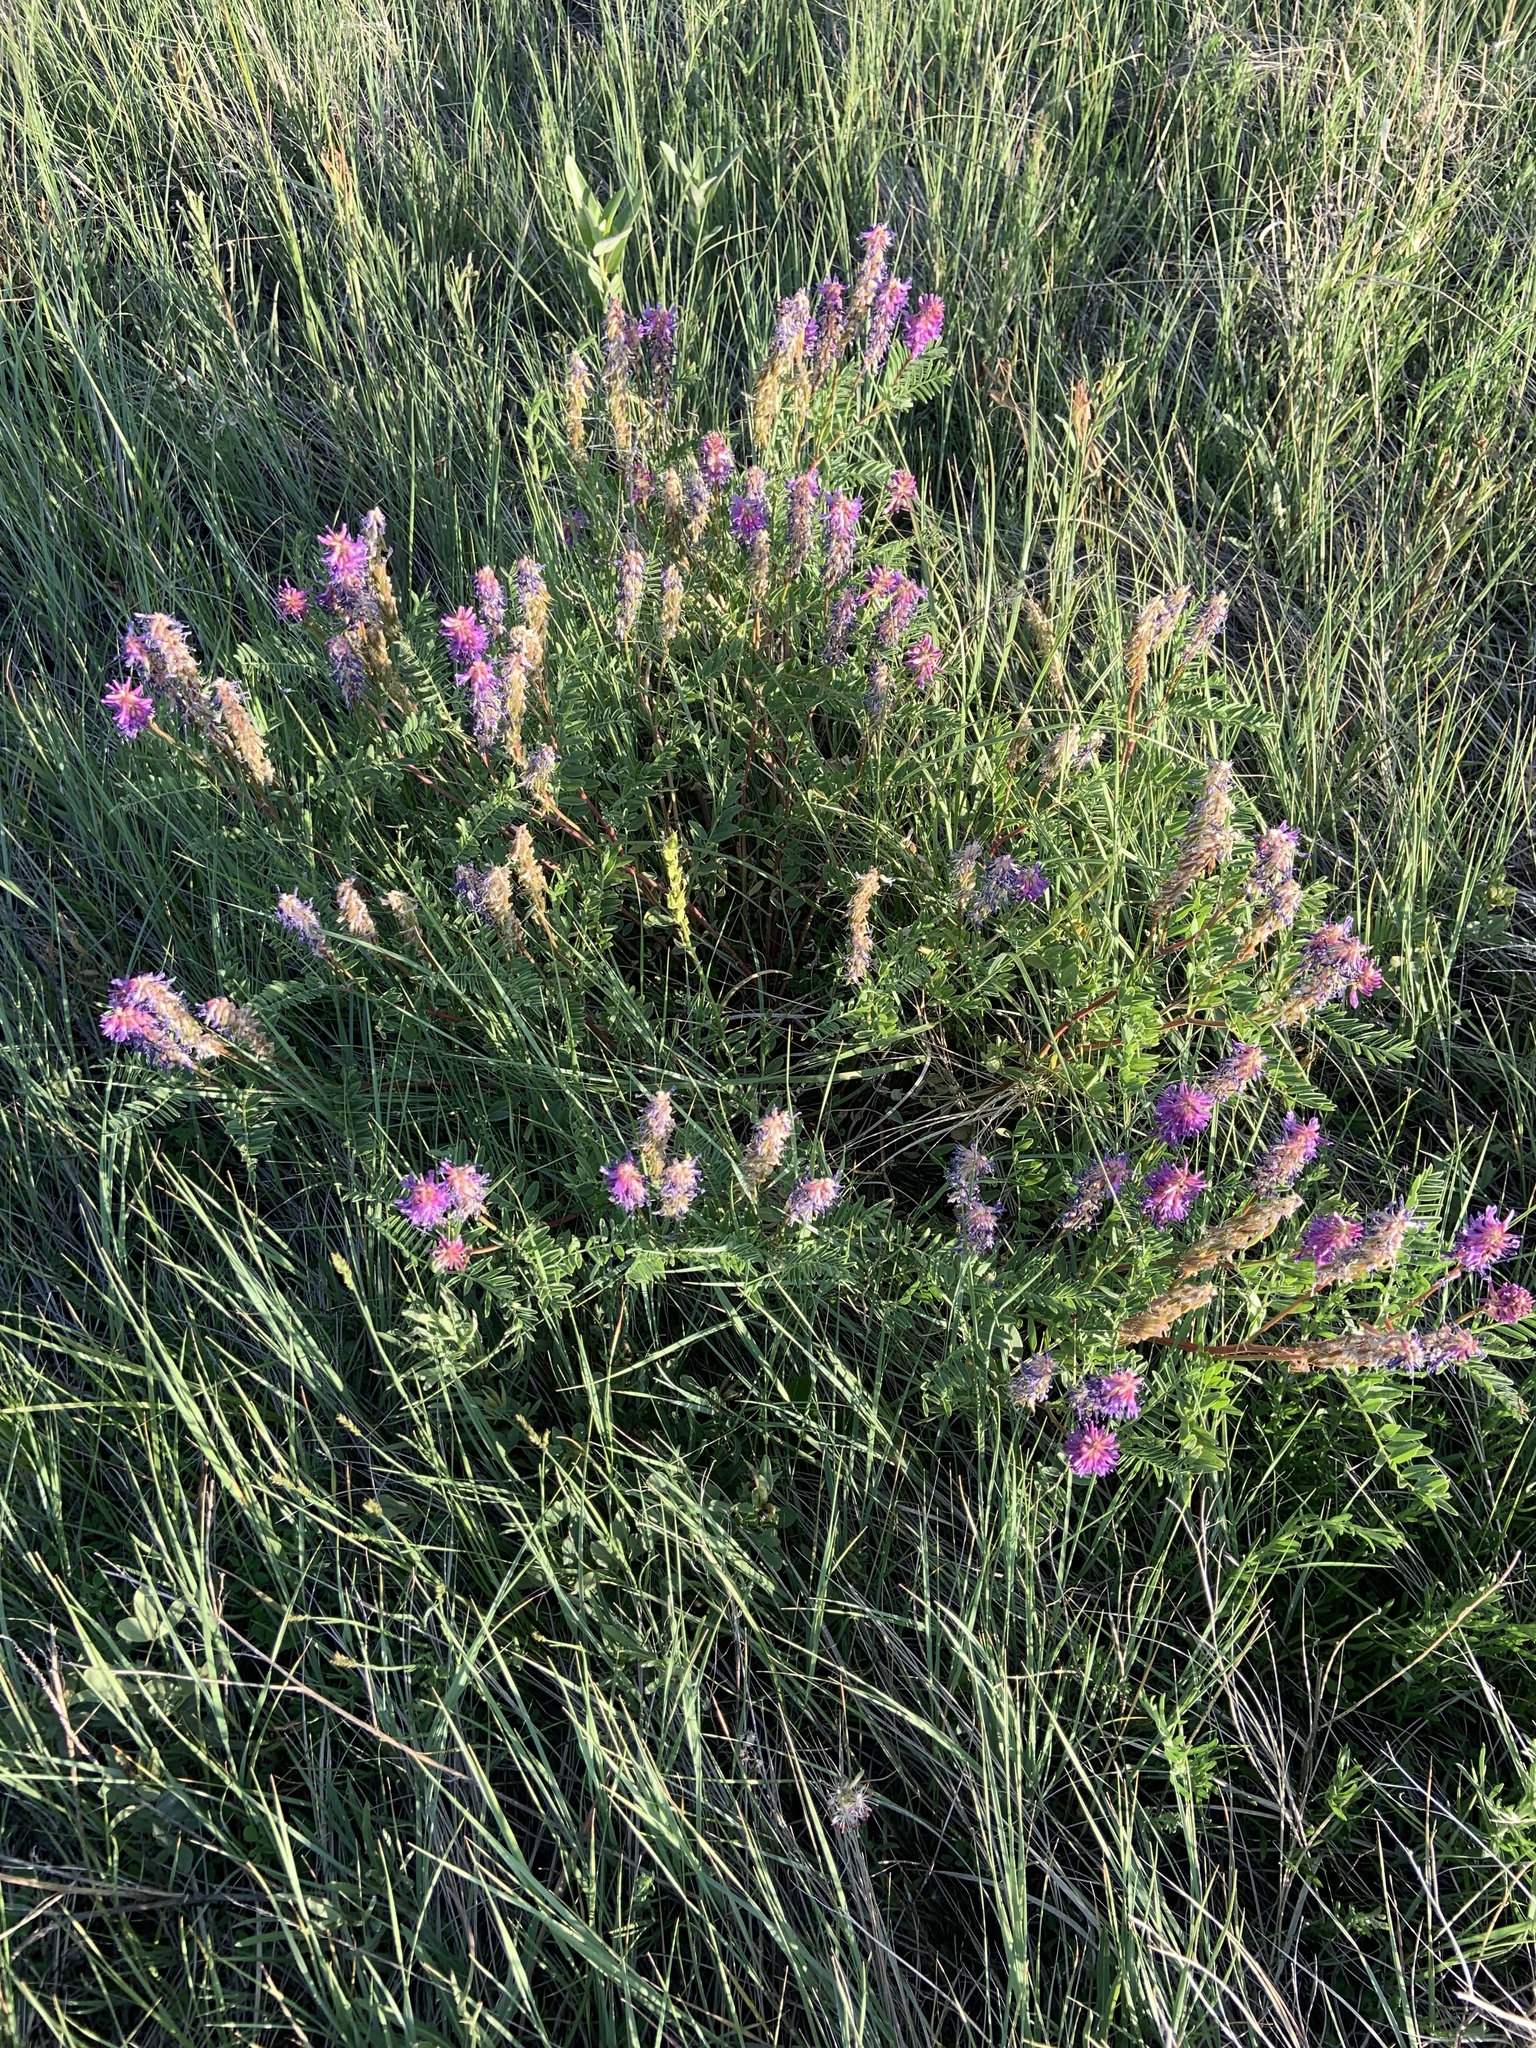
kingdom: Plantae
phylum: Tracheophyta
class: Magnoliopsida
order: Fabales
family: Fabaceae
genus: Astragalus
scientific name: Astragalus bisulcatus
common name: Two-groove milk-vetch
